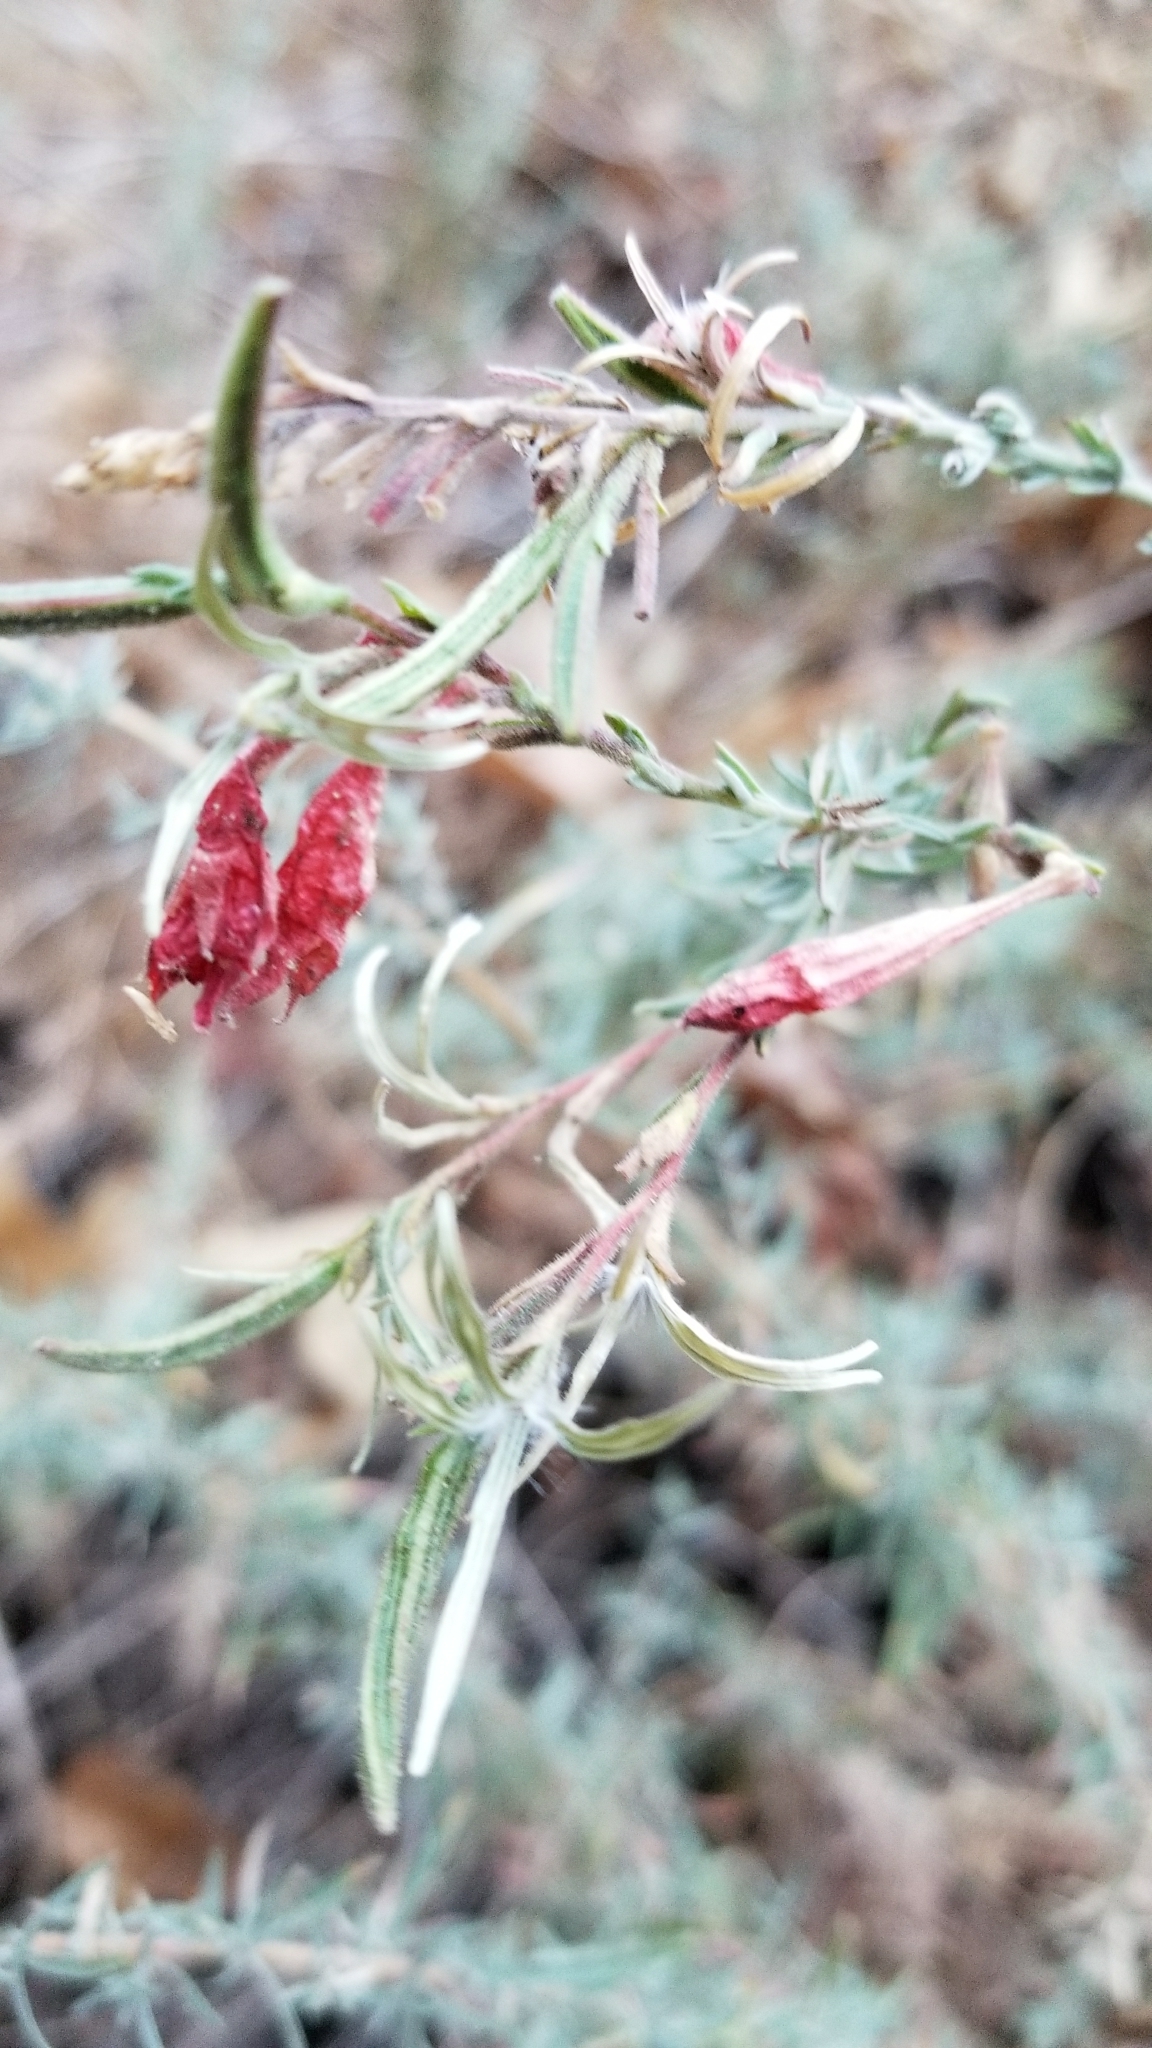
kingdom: Plantae
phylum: Tracheophyta
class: Magnoliopsida
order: Myrtales
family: Onagraceae
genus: Epilobium
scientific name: Epilobium canum
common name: California-fuchsia
